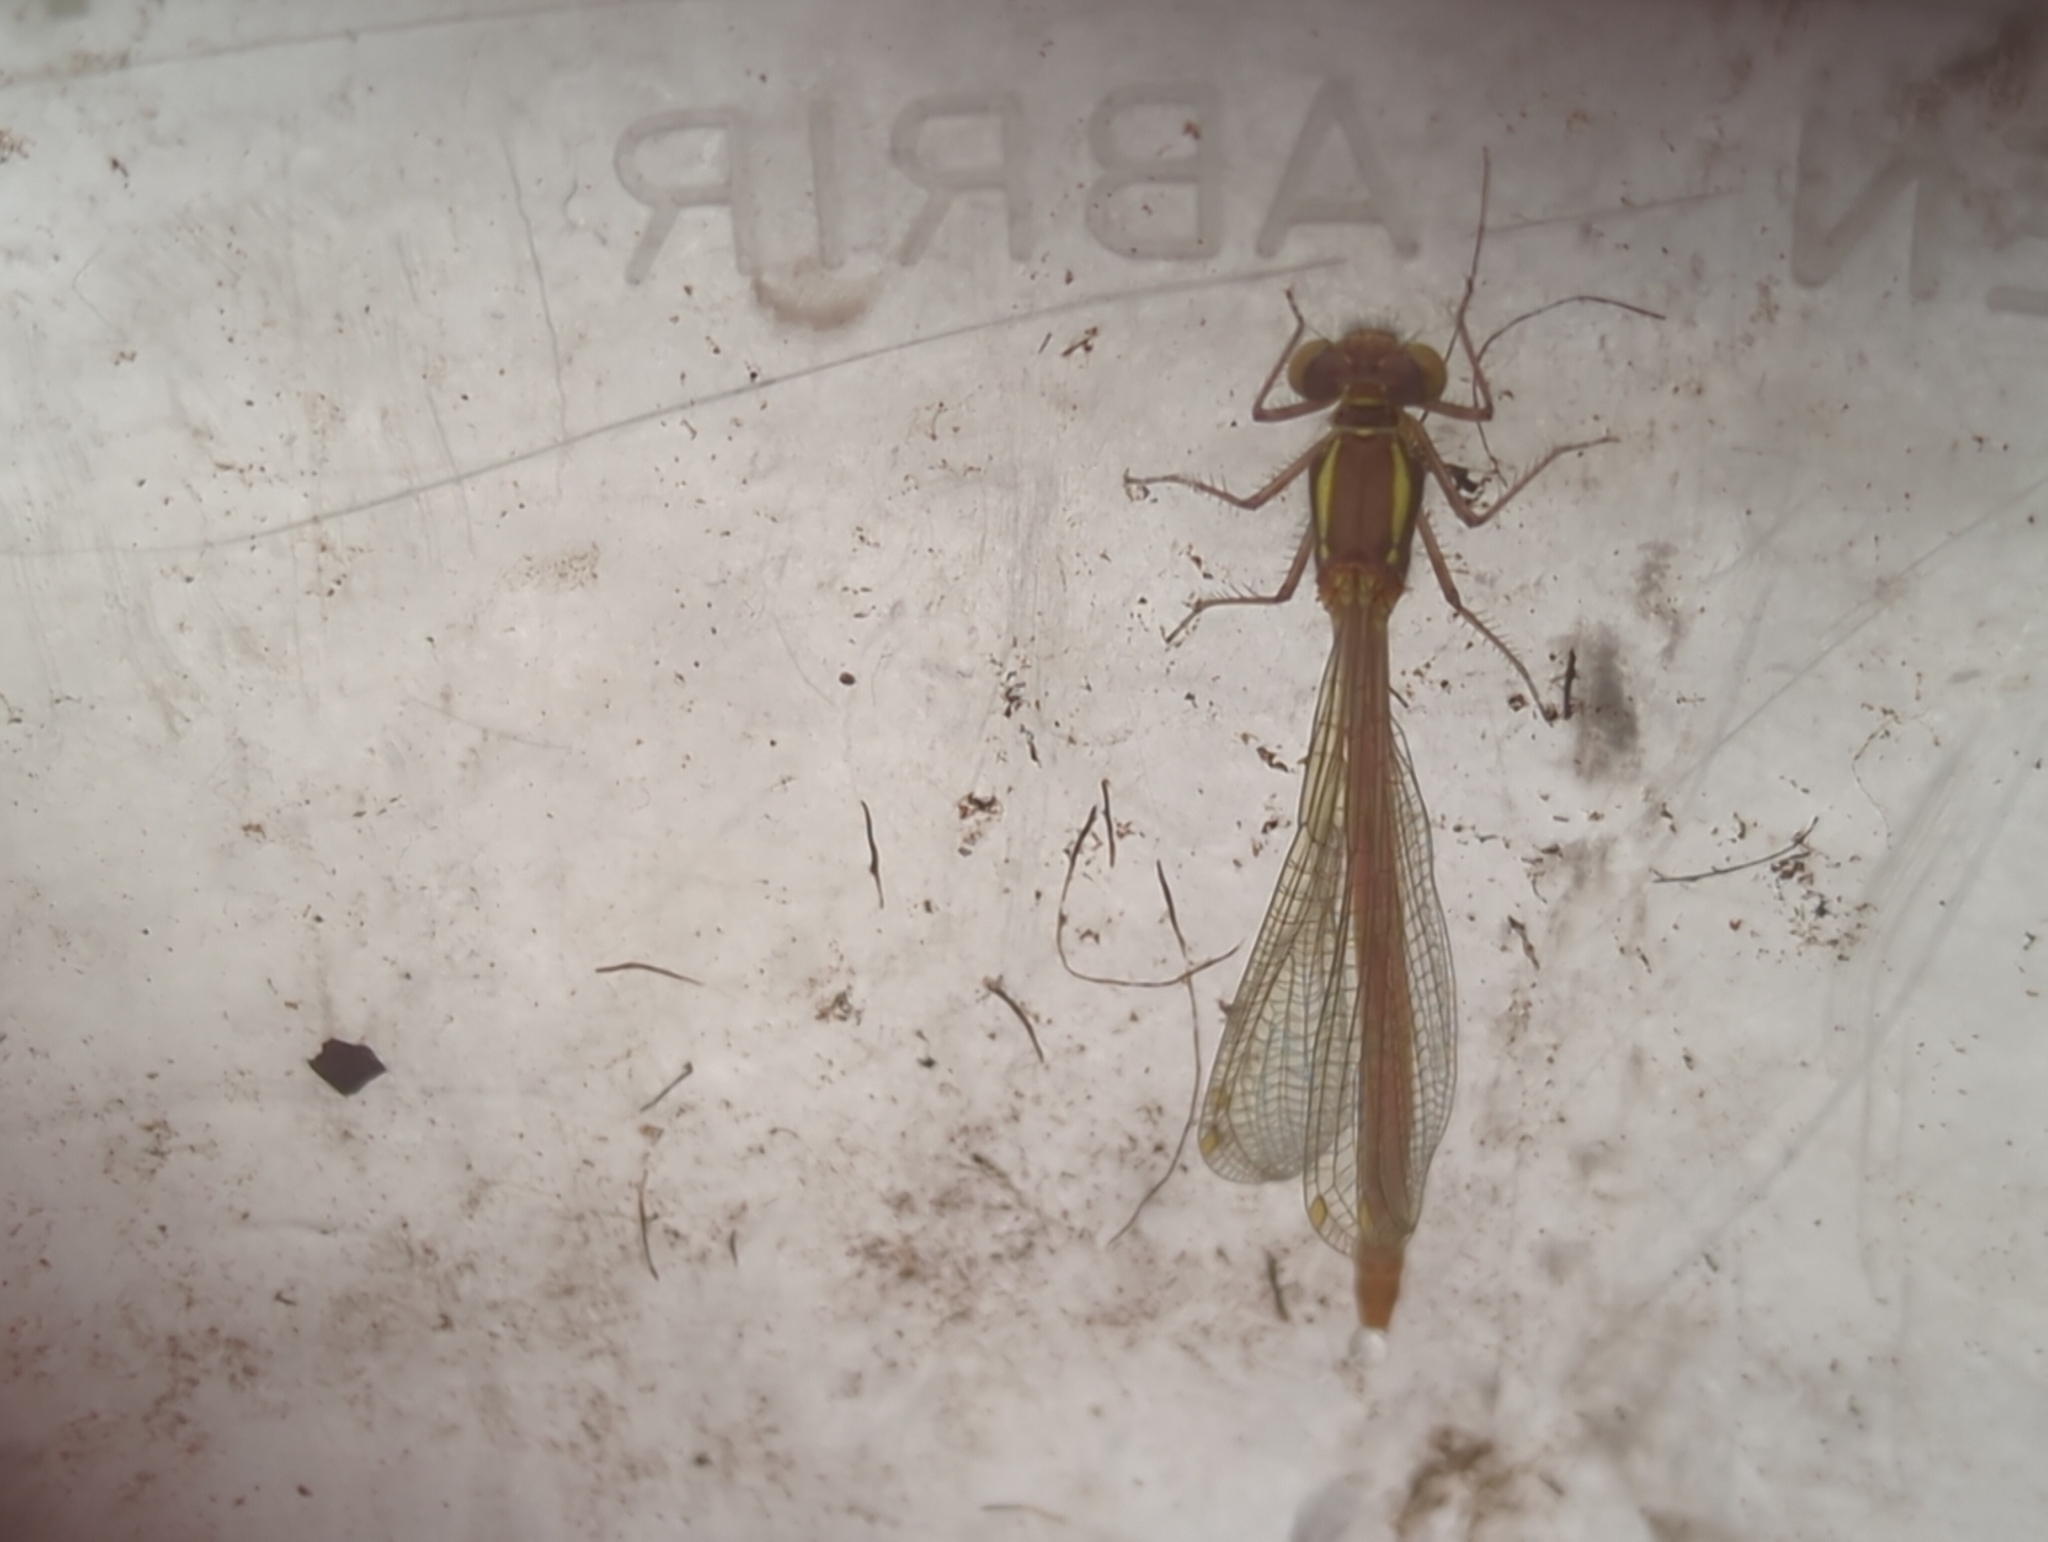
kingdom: Animalia
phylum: Arthropoda
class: Insecta
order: Odonata
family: Coenagrionidae
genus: Pyrrhosoma
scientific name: Pyrrhosoma nymphula
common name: Large red damsel
